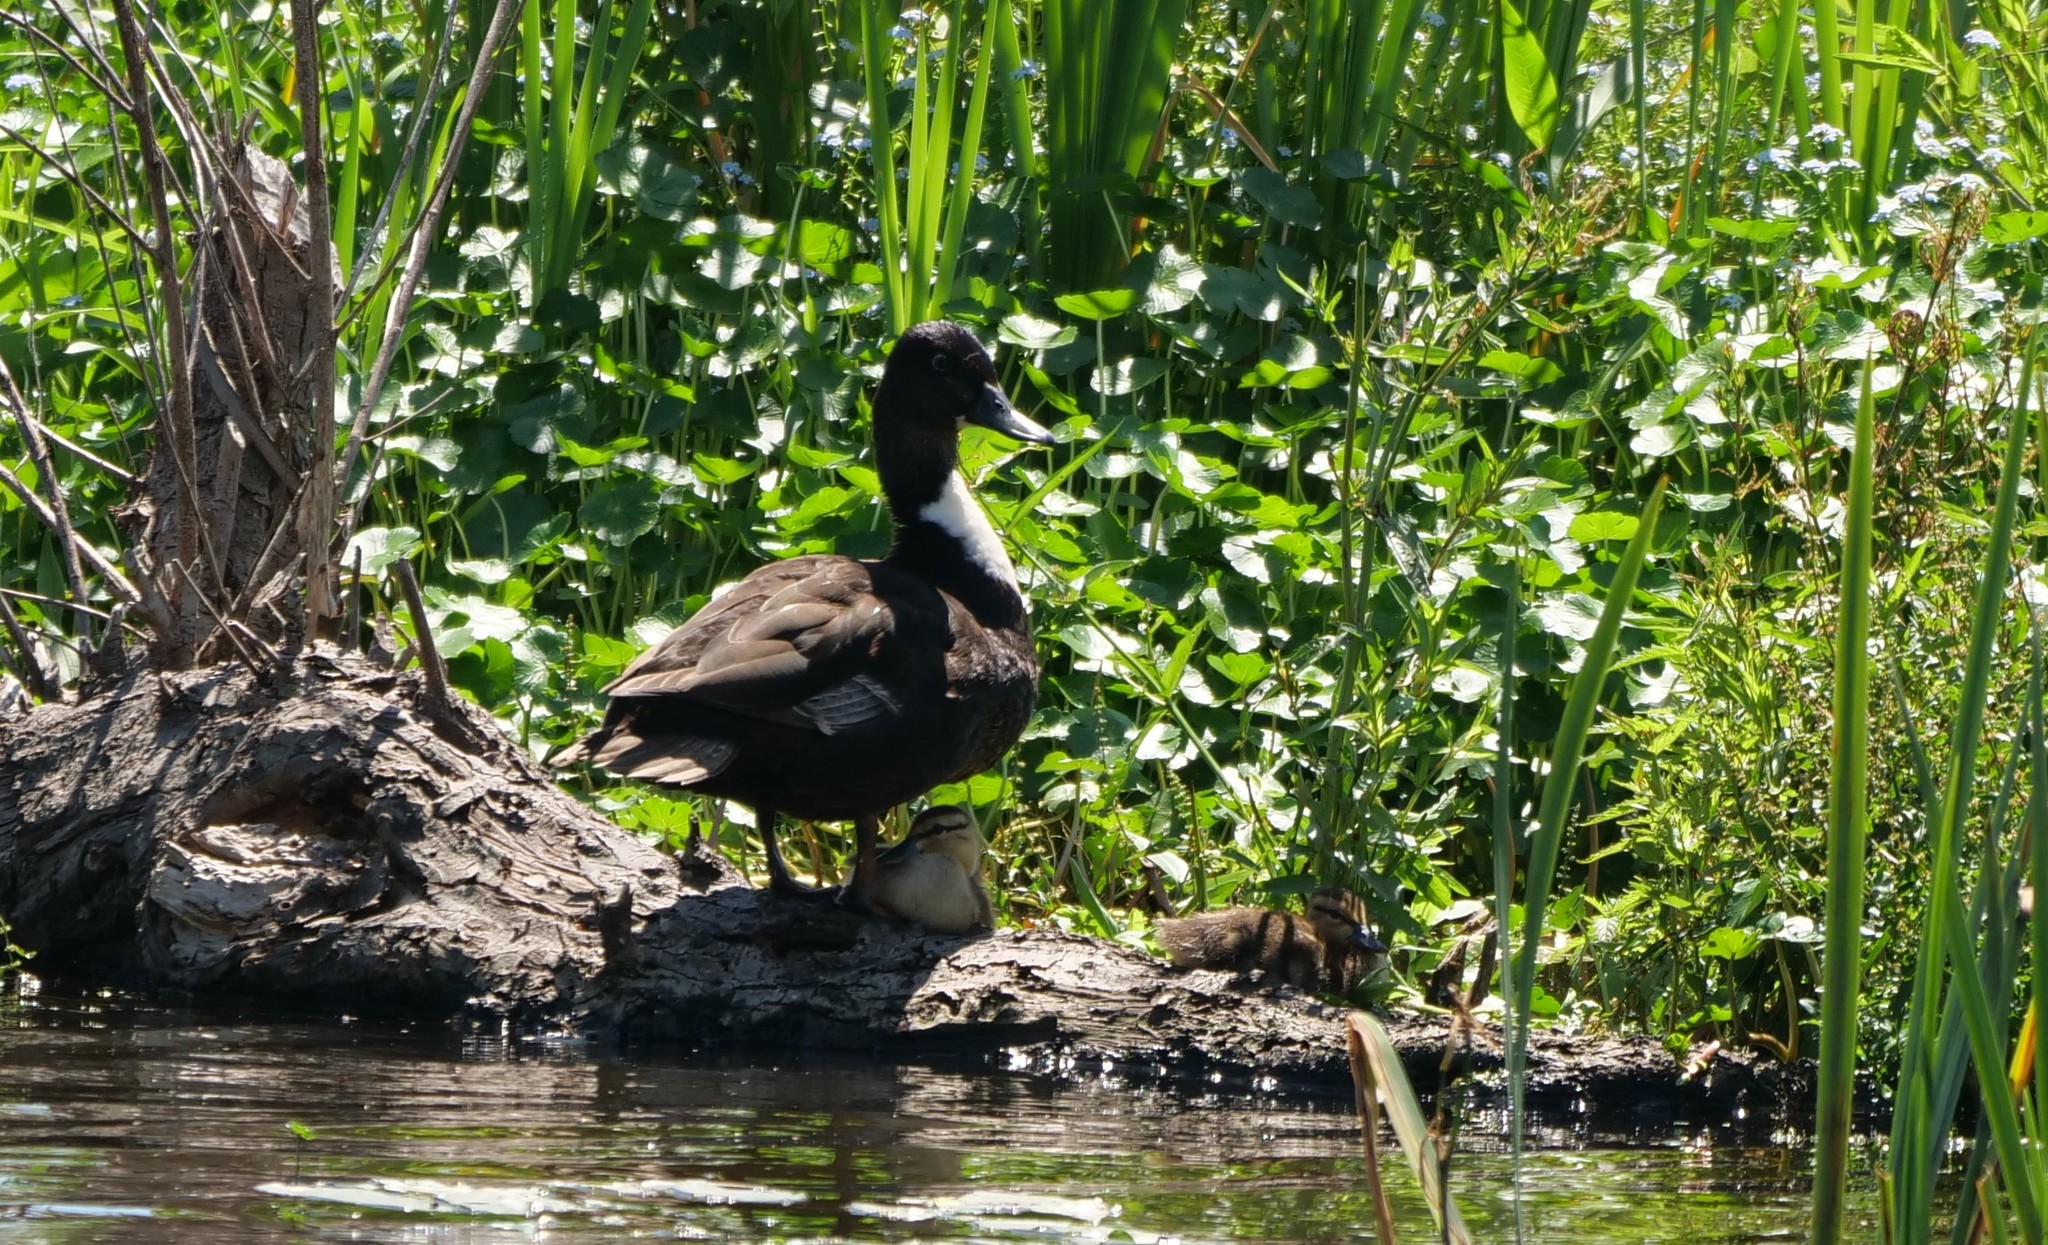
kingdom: Animalia
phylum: Chordata
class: Aves
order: Anseriformes
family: Anatidae
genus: Anas
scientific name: Anas platyrhynchos
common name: Mallard
